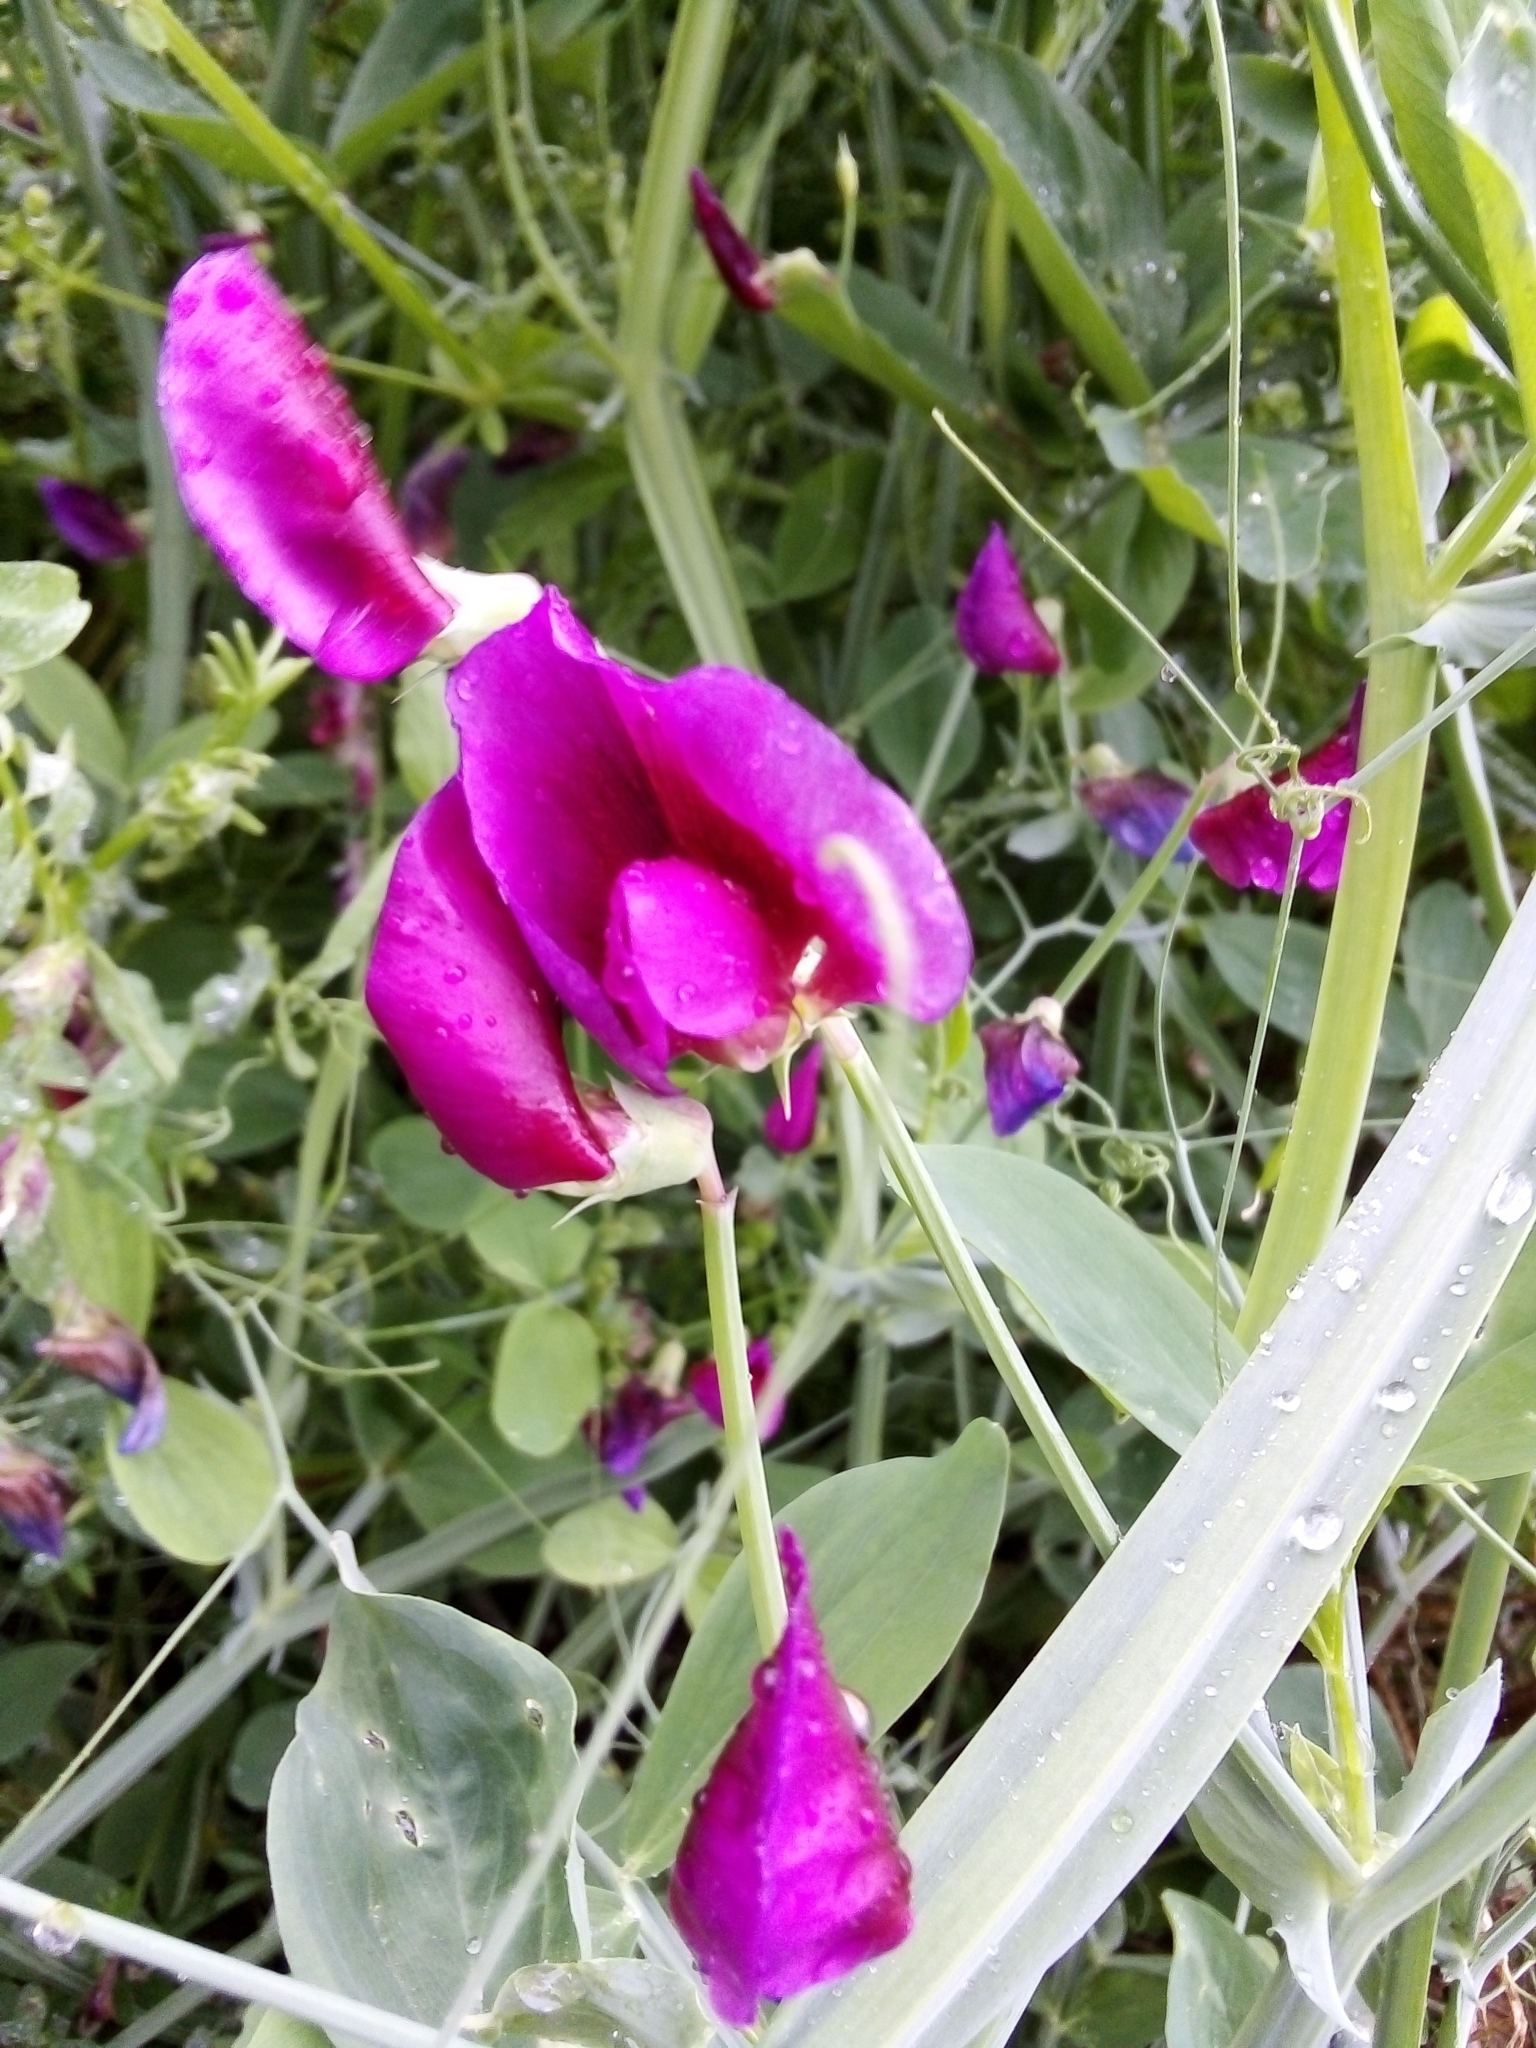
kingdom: Plantae
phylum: Tracheophyta
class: Magnoliopsida
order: Fabales
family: Fabaceae
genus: Lathyrus
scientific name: Lathyrus tingitanus
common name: Tangier pea
